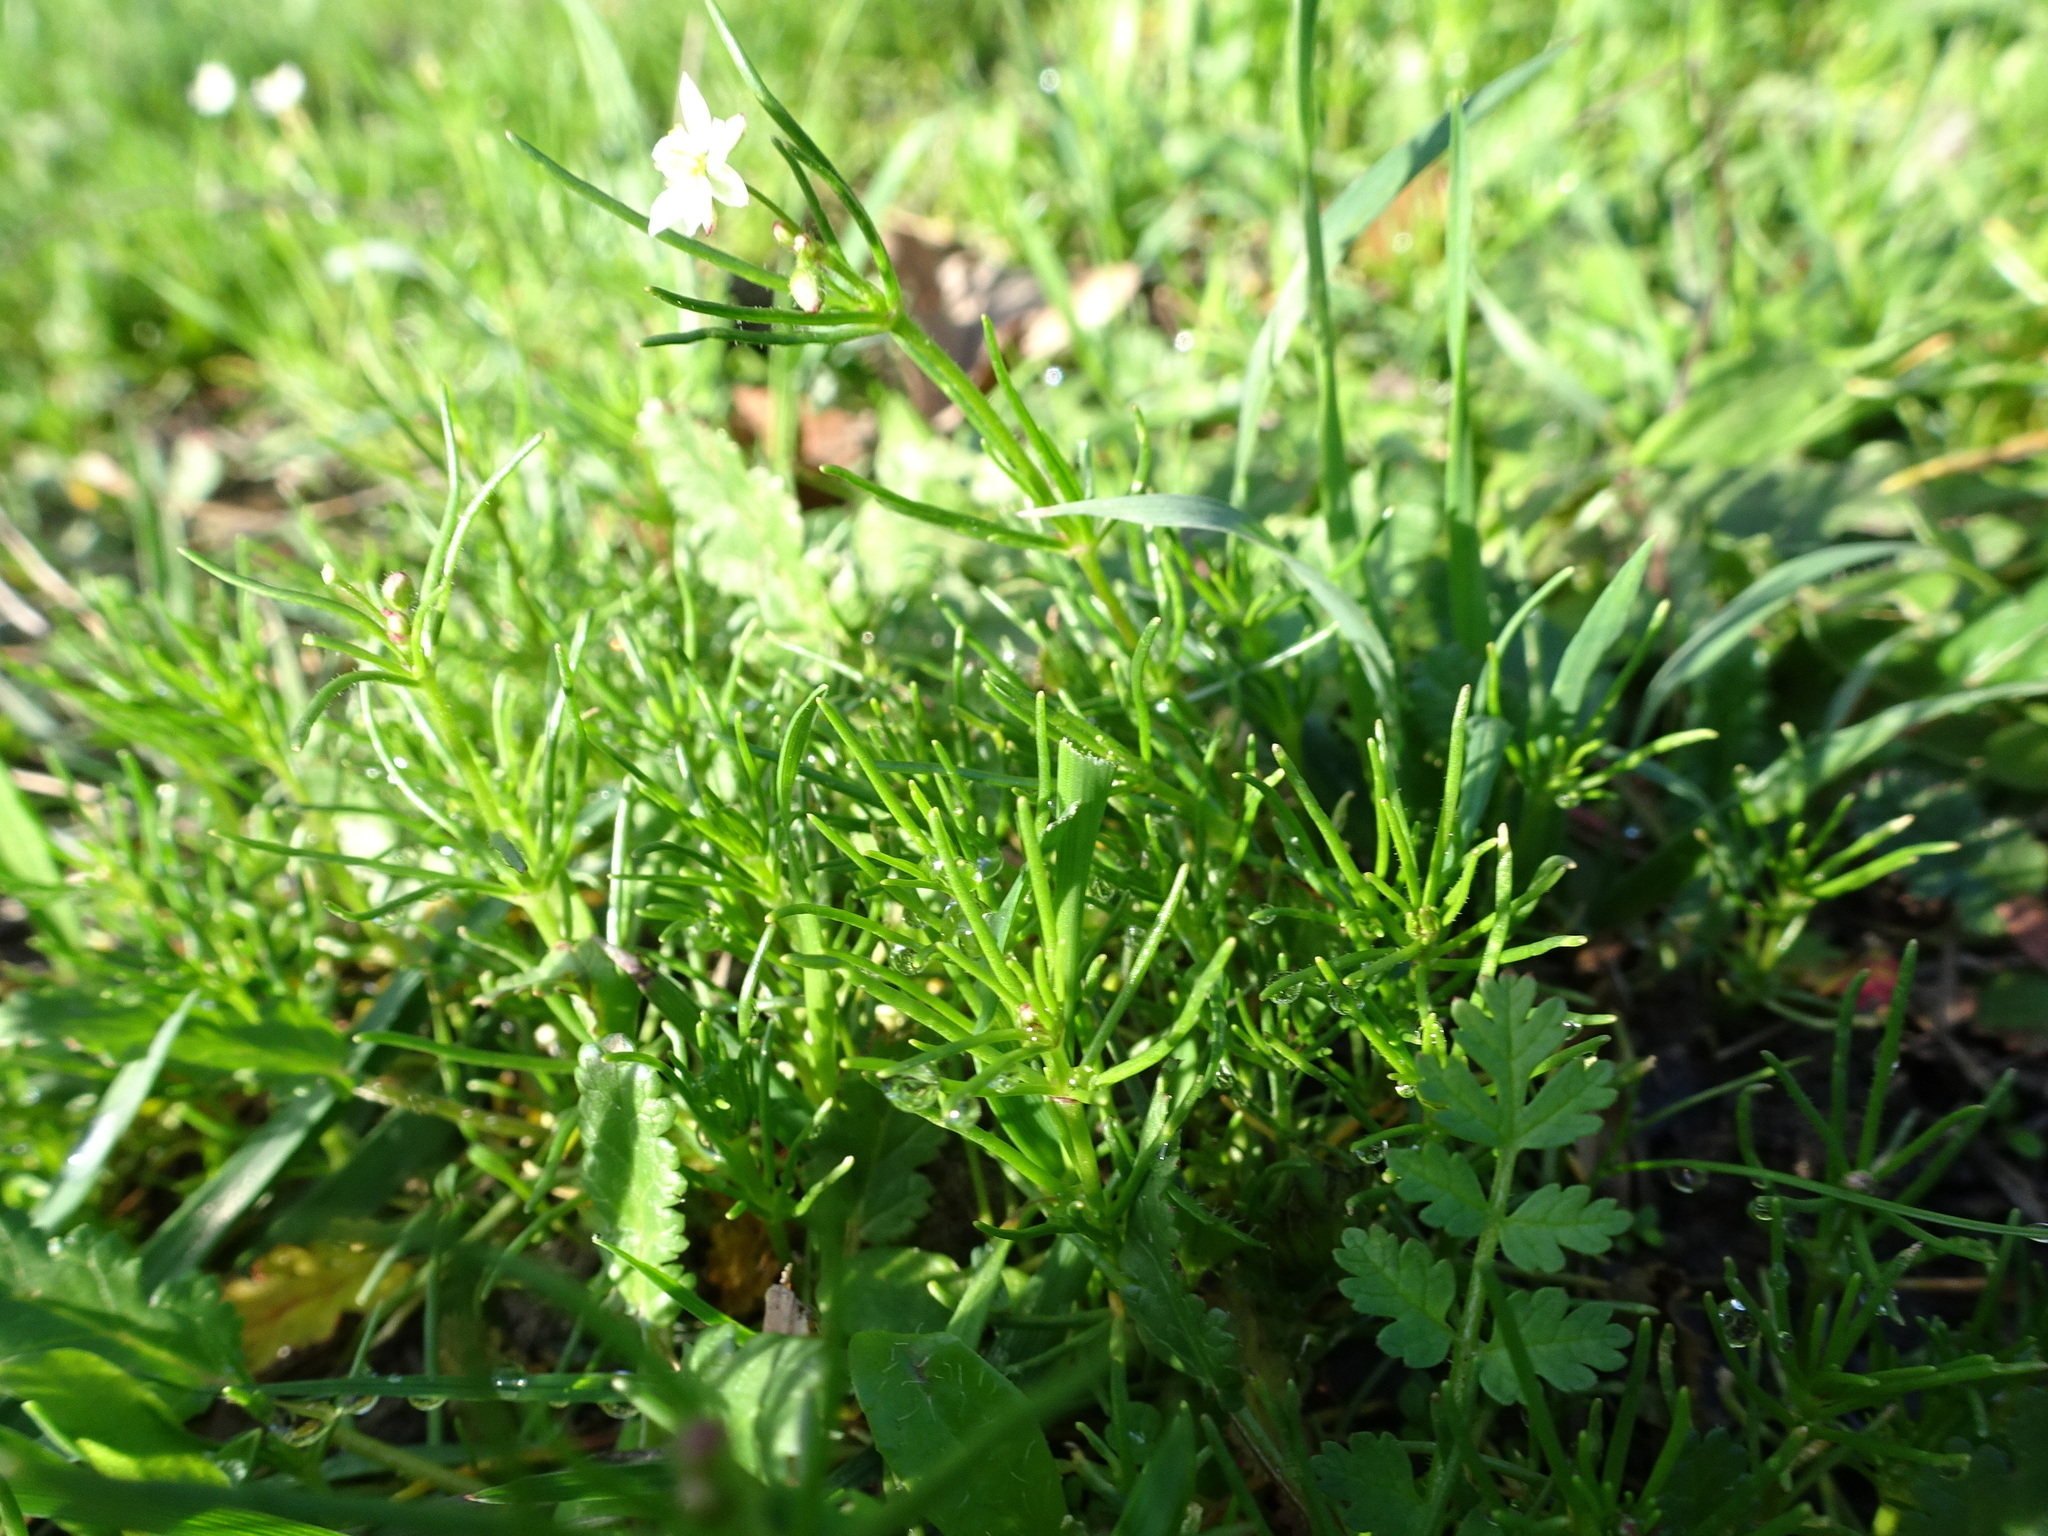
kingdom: Plantae
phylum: Tracheophyta
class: Magnoliopsida
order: Caryophyllales
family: Caryophyllaceae
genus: Spergula
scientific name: Spergula arvensis
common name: Corn spurrey
